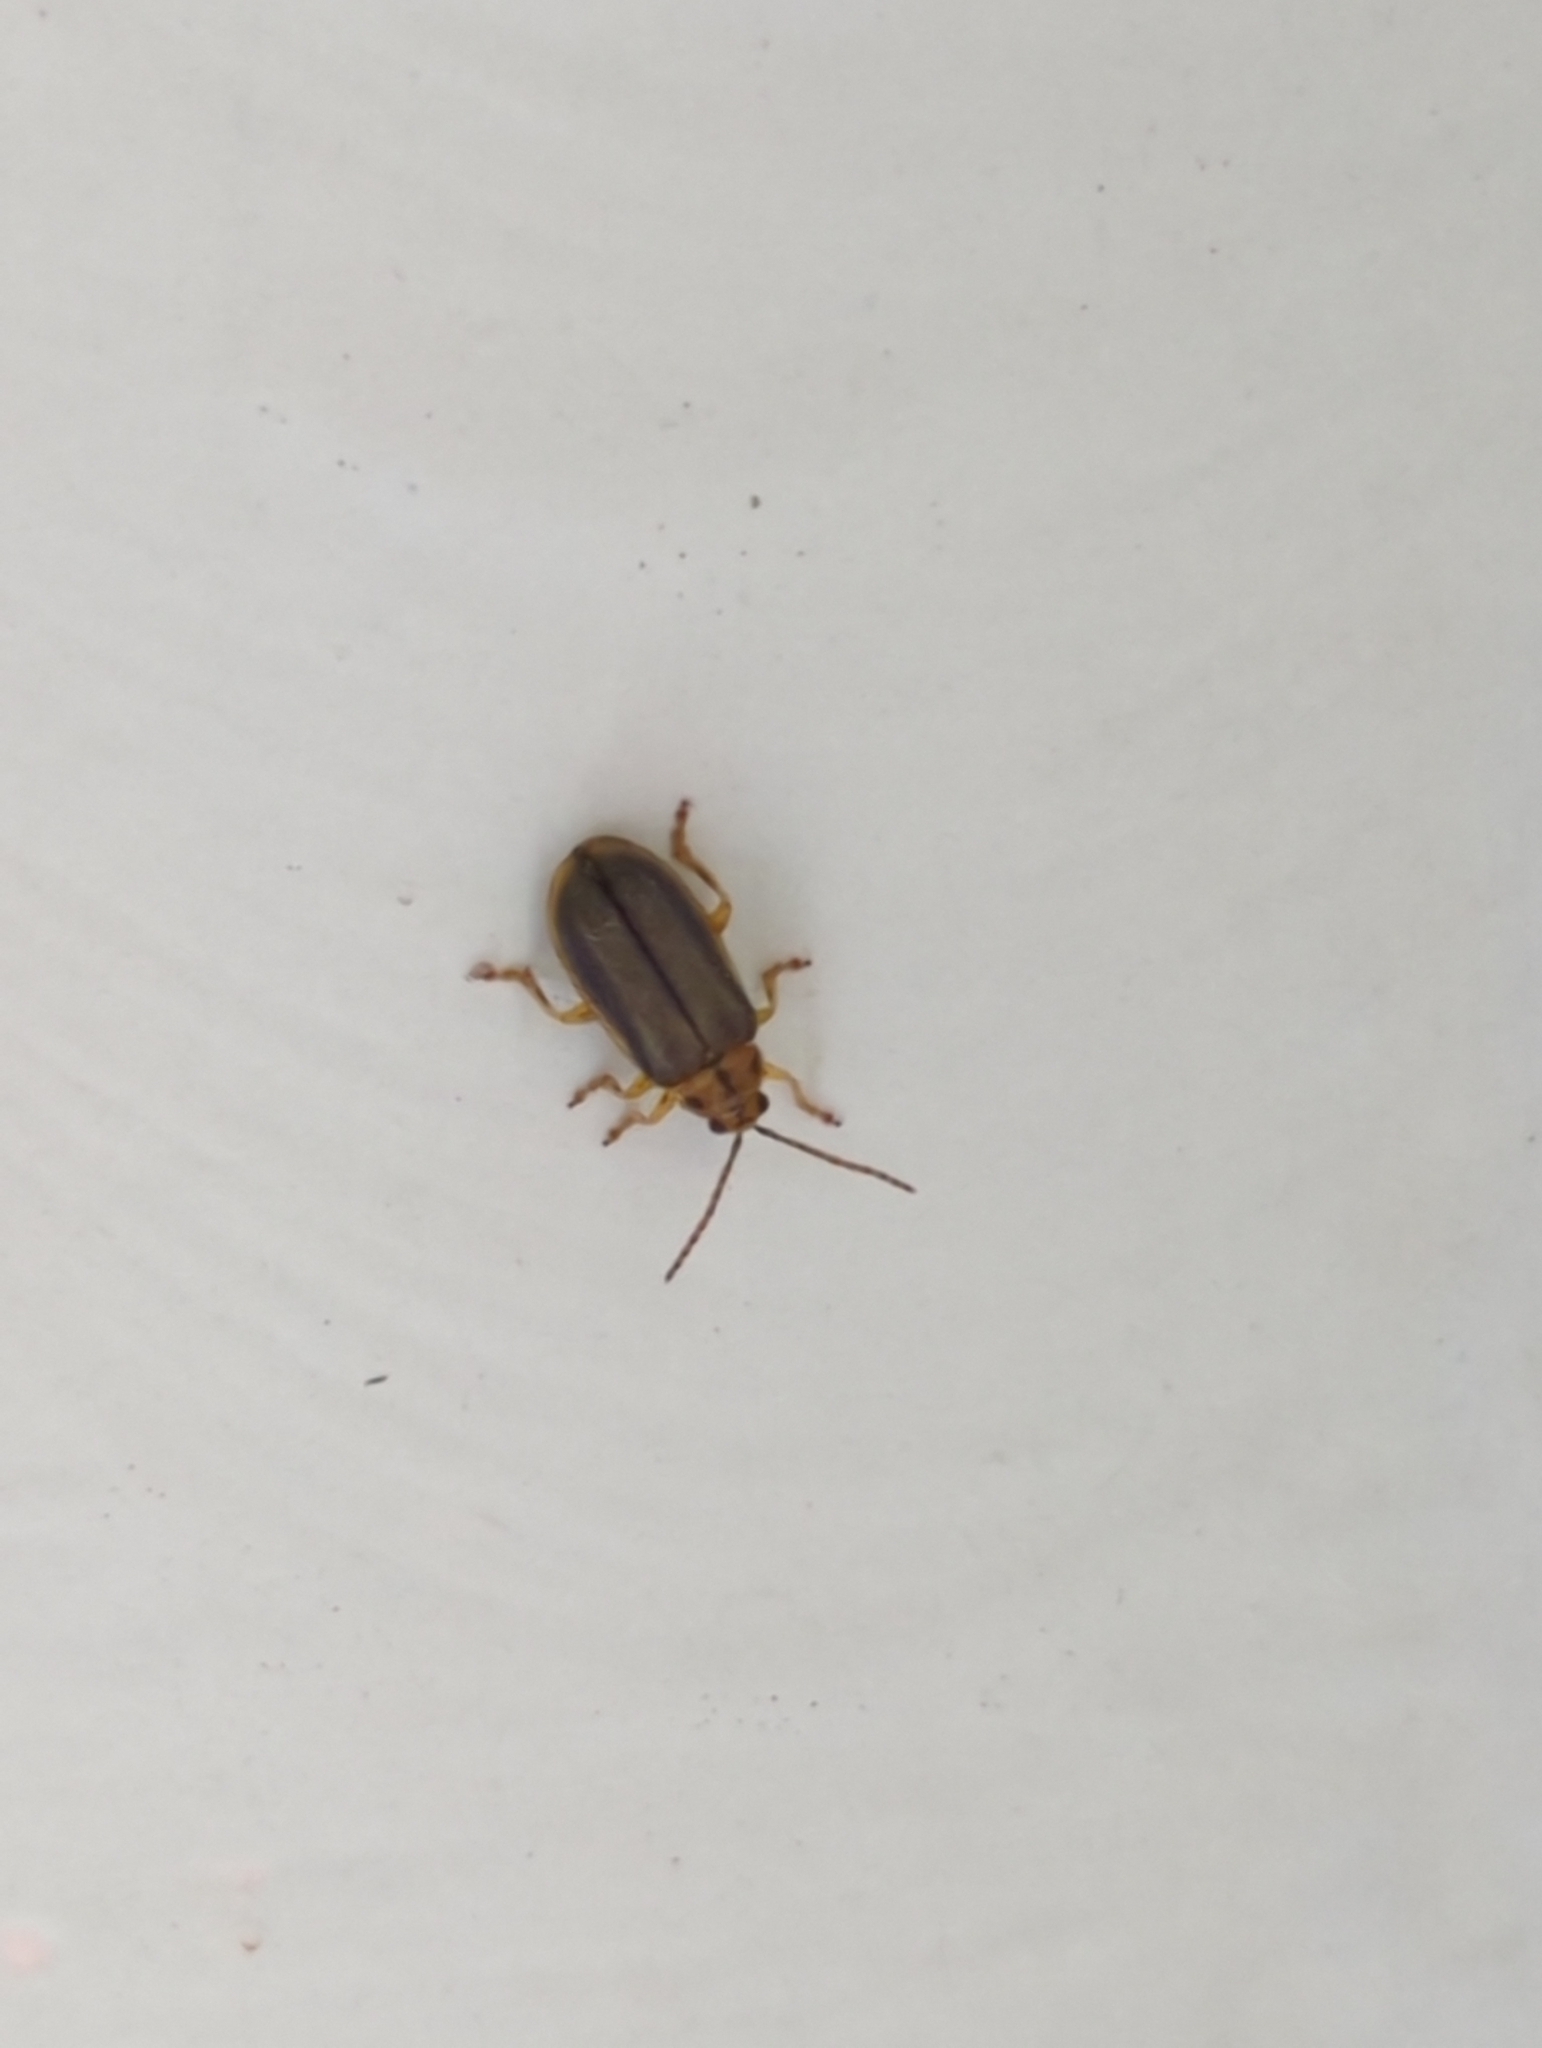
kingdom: Animalia
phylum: Arthropoda
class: Insecta
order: Coleoptera
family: Chrysomelidae
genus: Xanthogaleruca
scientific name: Xanthogaleruca luteola
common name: Elm leaf beetle
